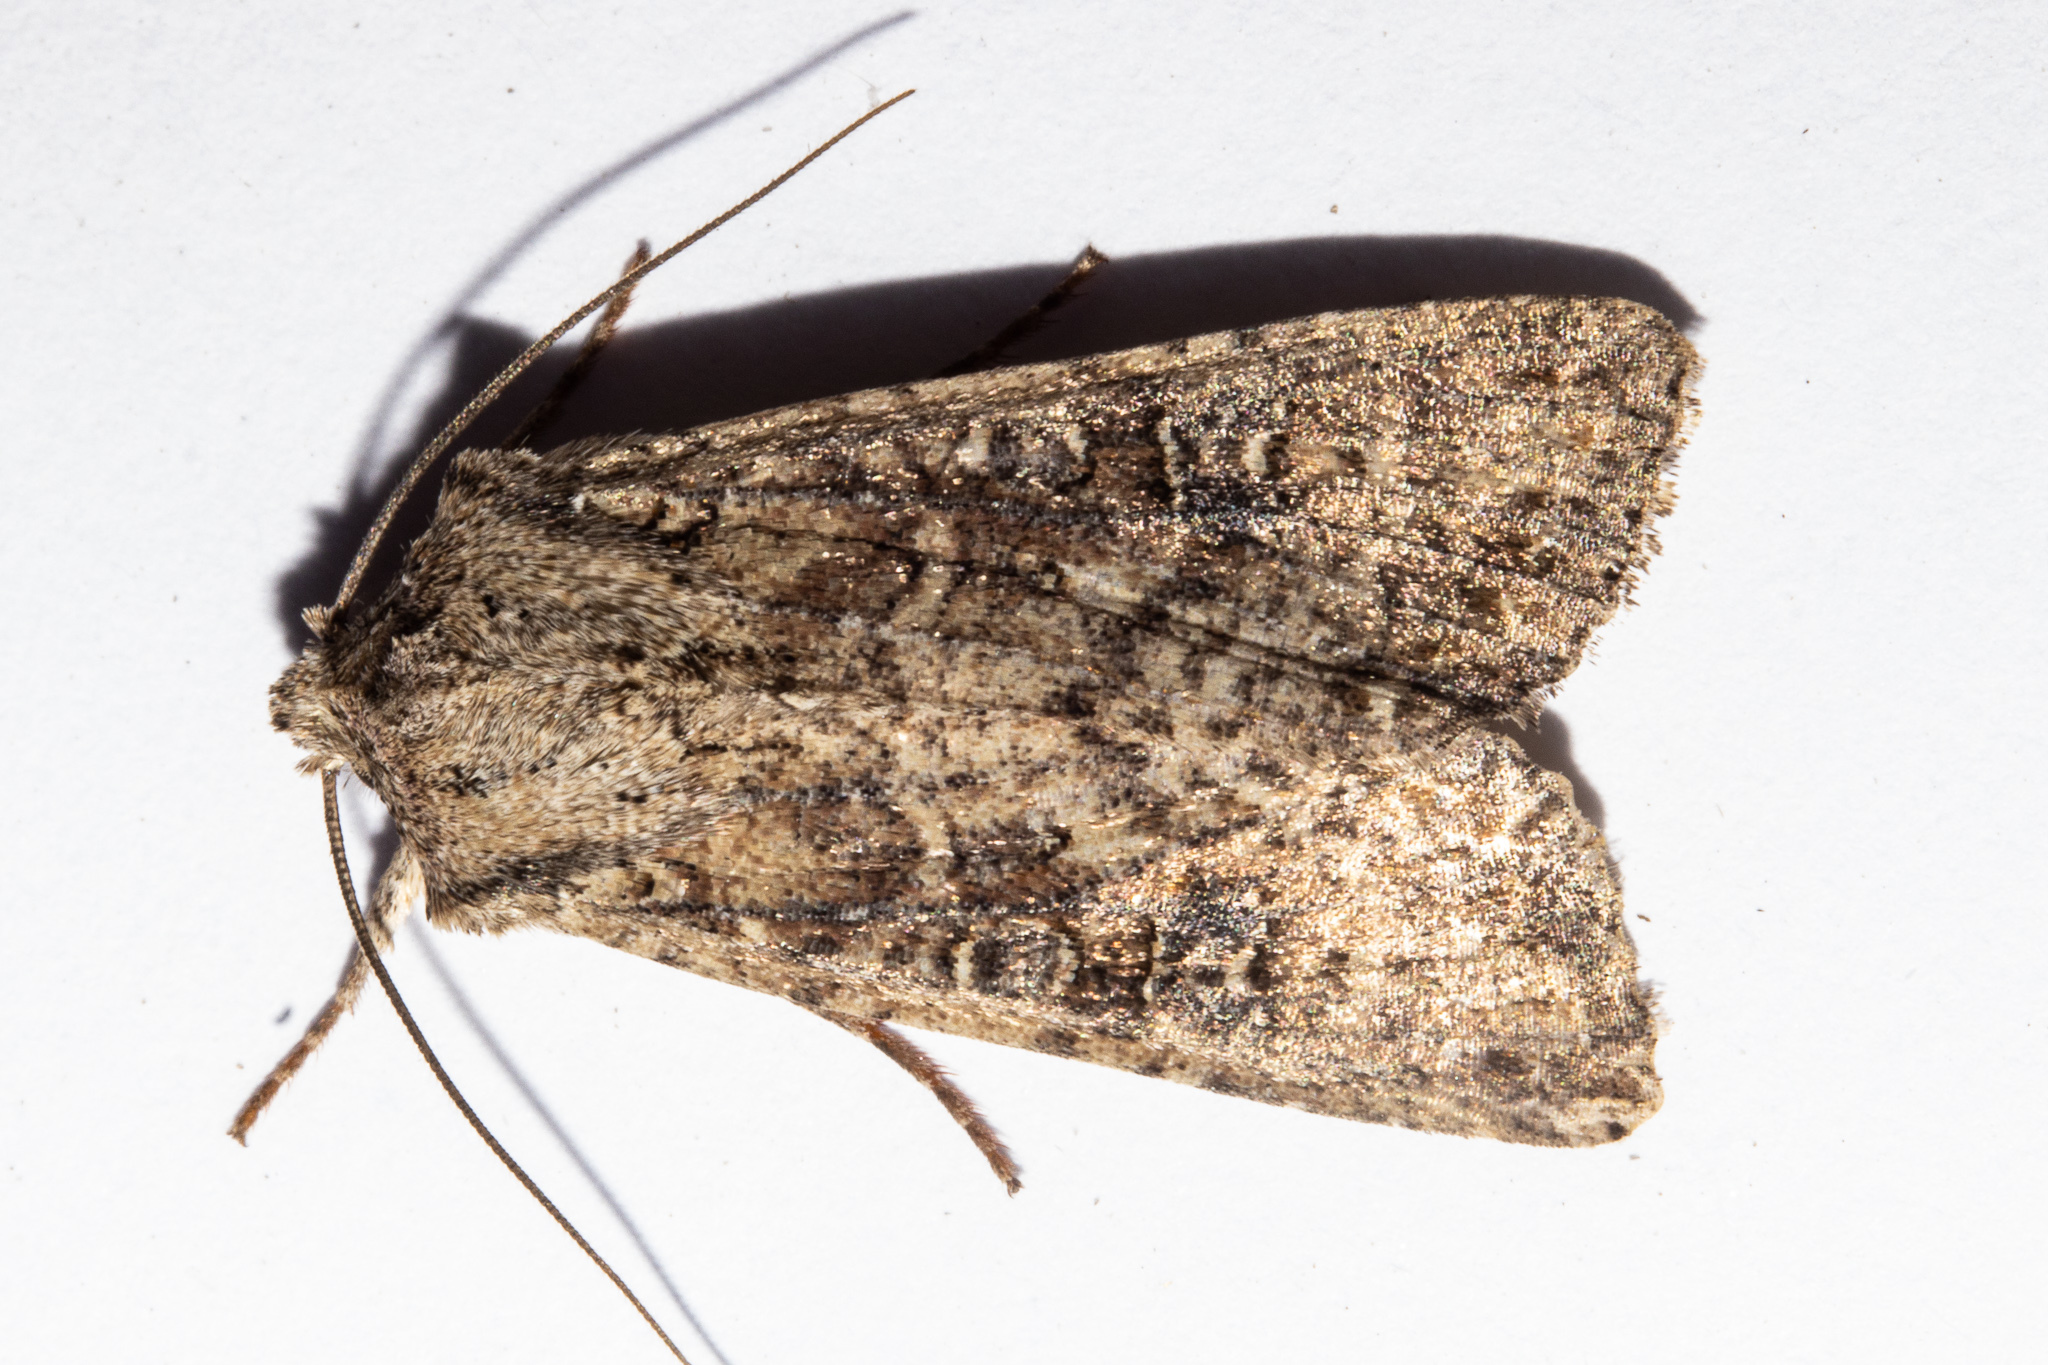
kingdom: Animalia
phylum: Arthropoda
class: Insecta
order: Lepidoptera
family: Noctuidae
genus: Ichneutica
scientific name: Ichneutica morosa
